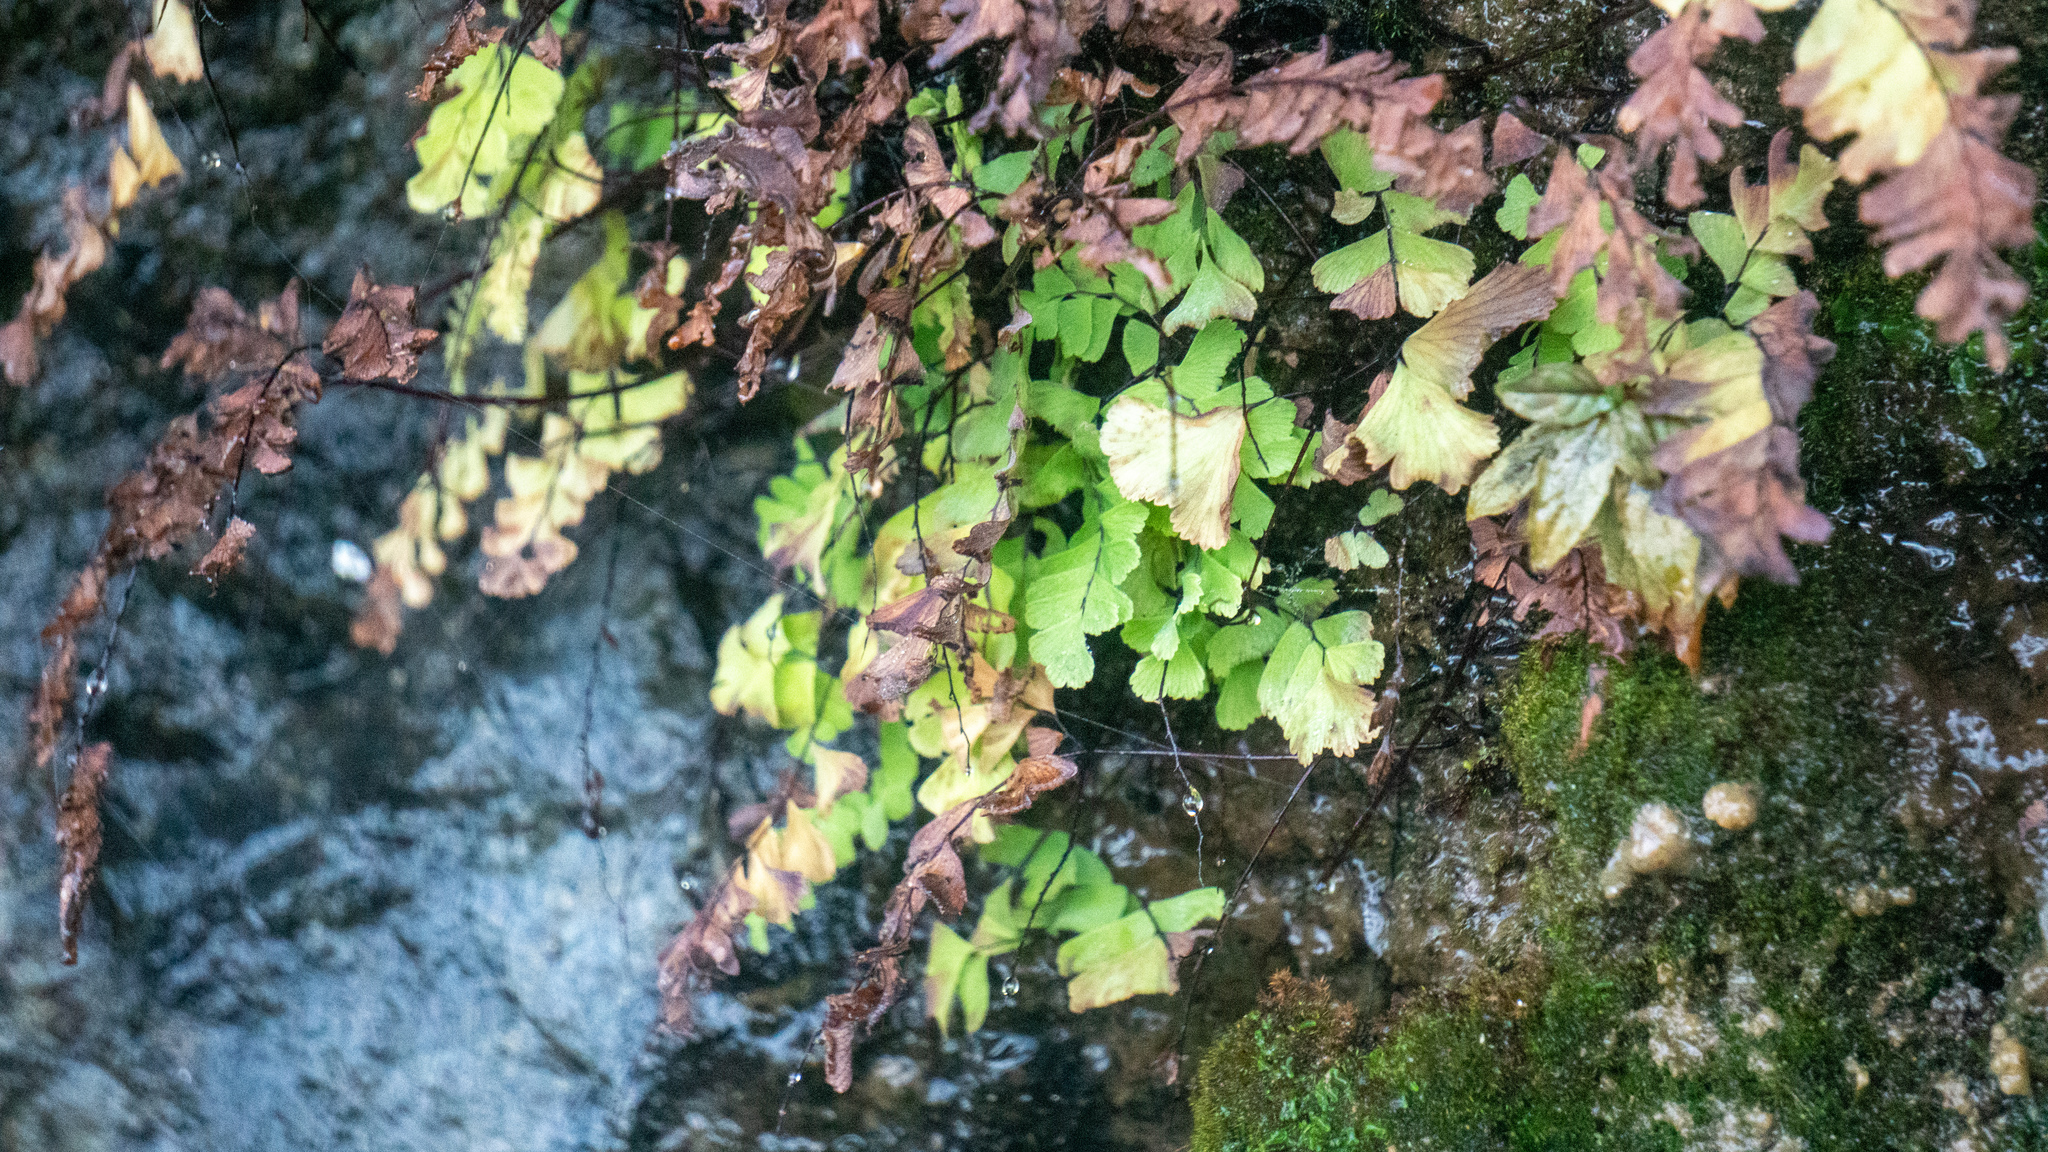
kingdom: Plantae
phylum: Tracheophyta
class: Polypodiopsida
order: Polypodiales
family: Pteridaceae
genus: Adiantum
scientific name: Adiantum aleuticum
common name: Aleutian maidenhair fern
